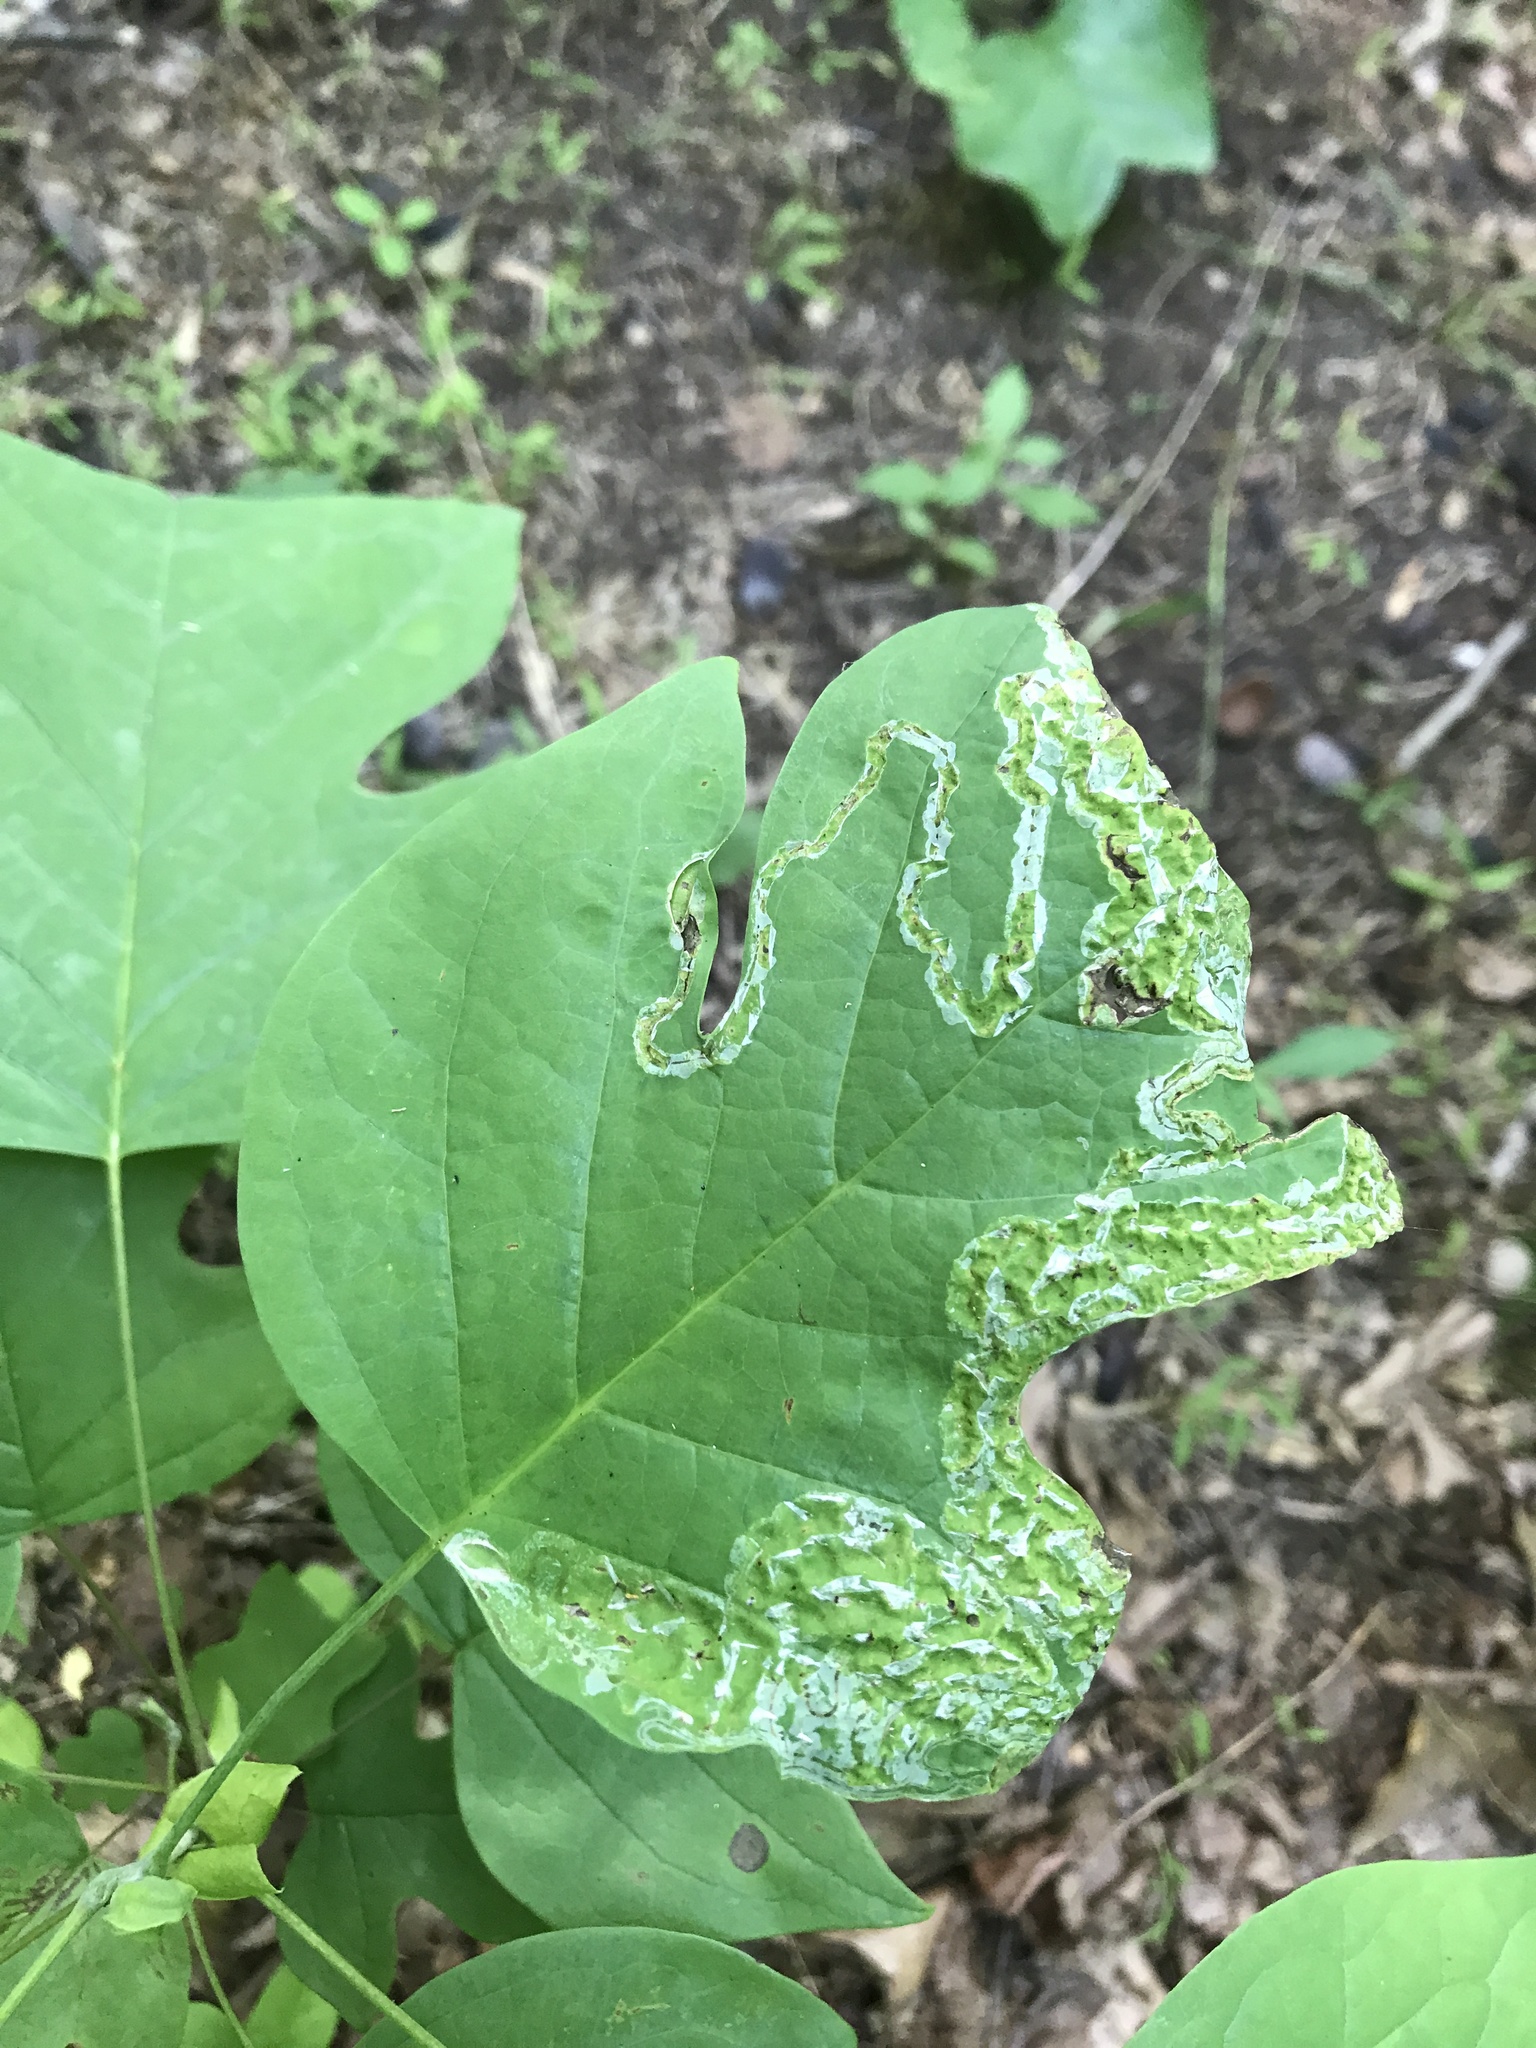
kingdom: Animalia
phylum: Arthropoda
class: Insecta
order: Lepidoptera
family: Gracillariidae
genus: Phyllocnistis
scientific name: Phyllocnistis liriodendronella
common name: Tulip tree leaf miner
